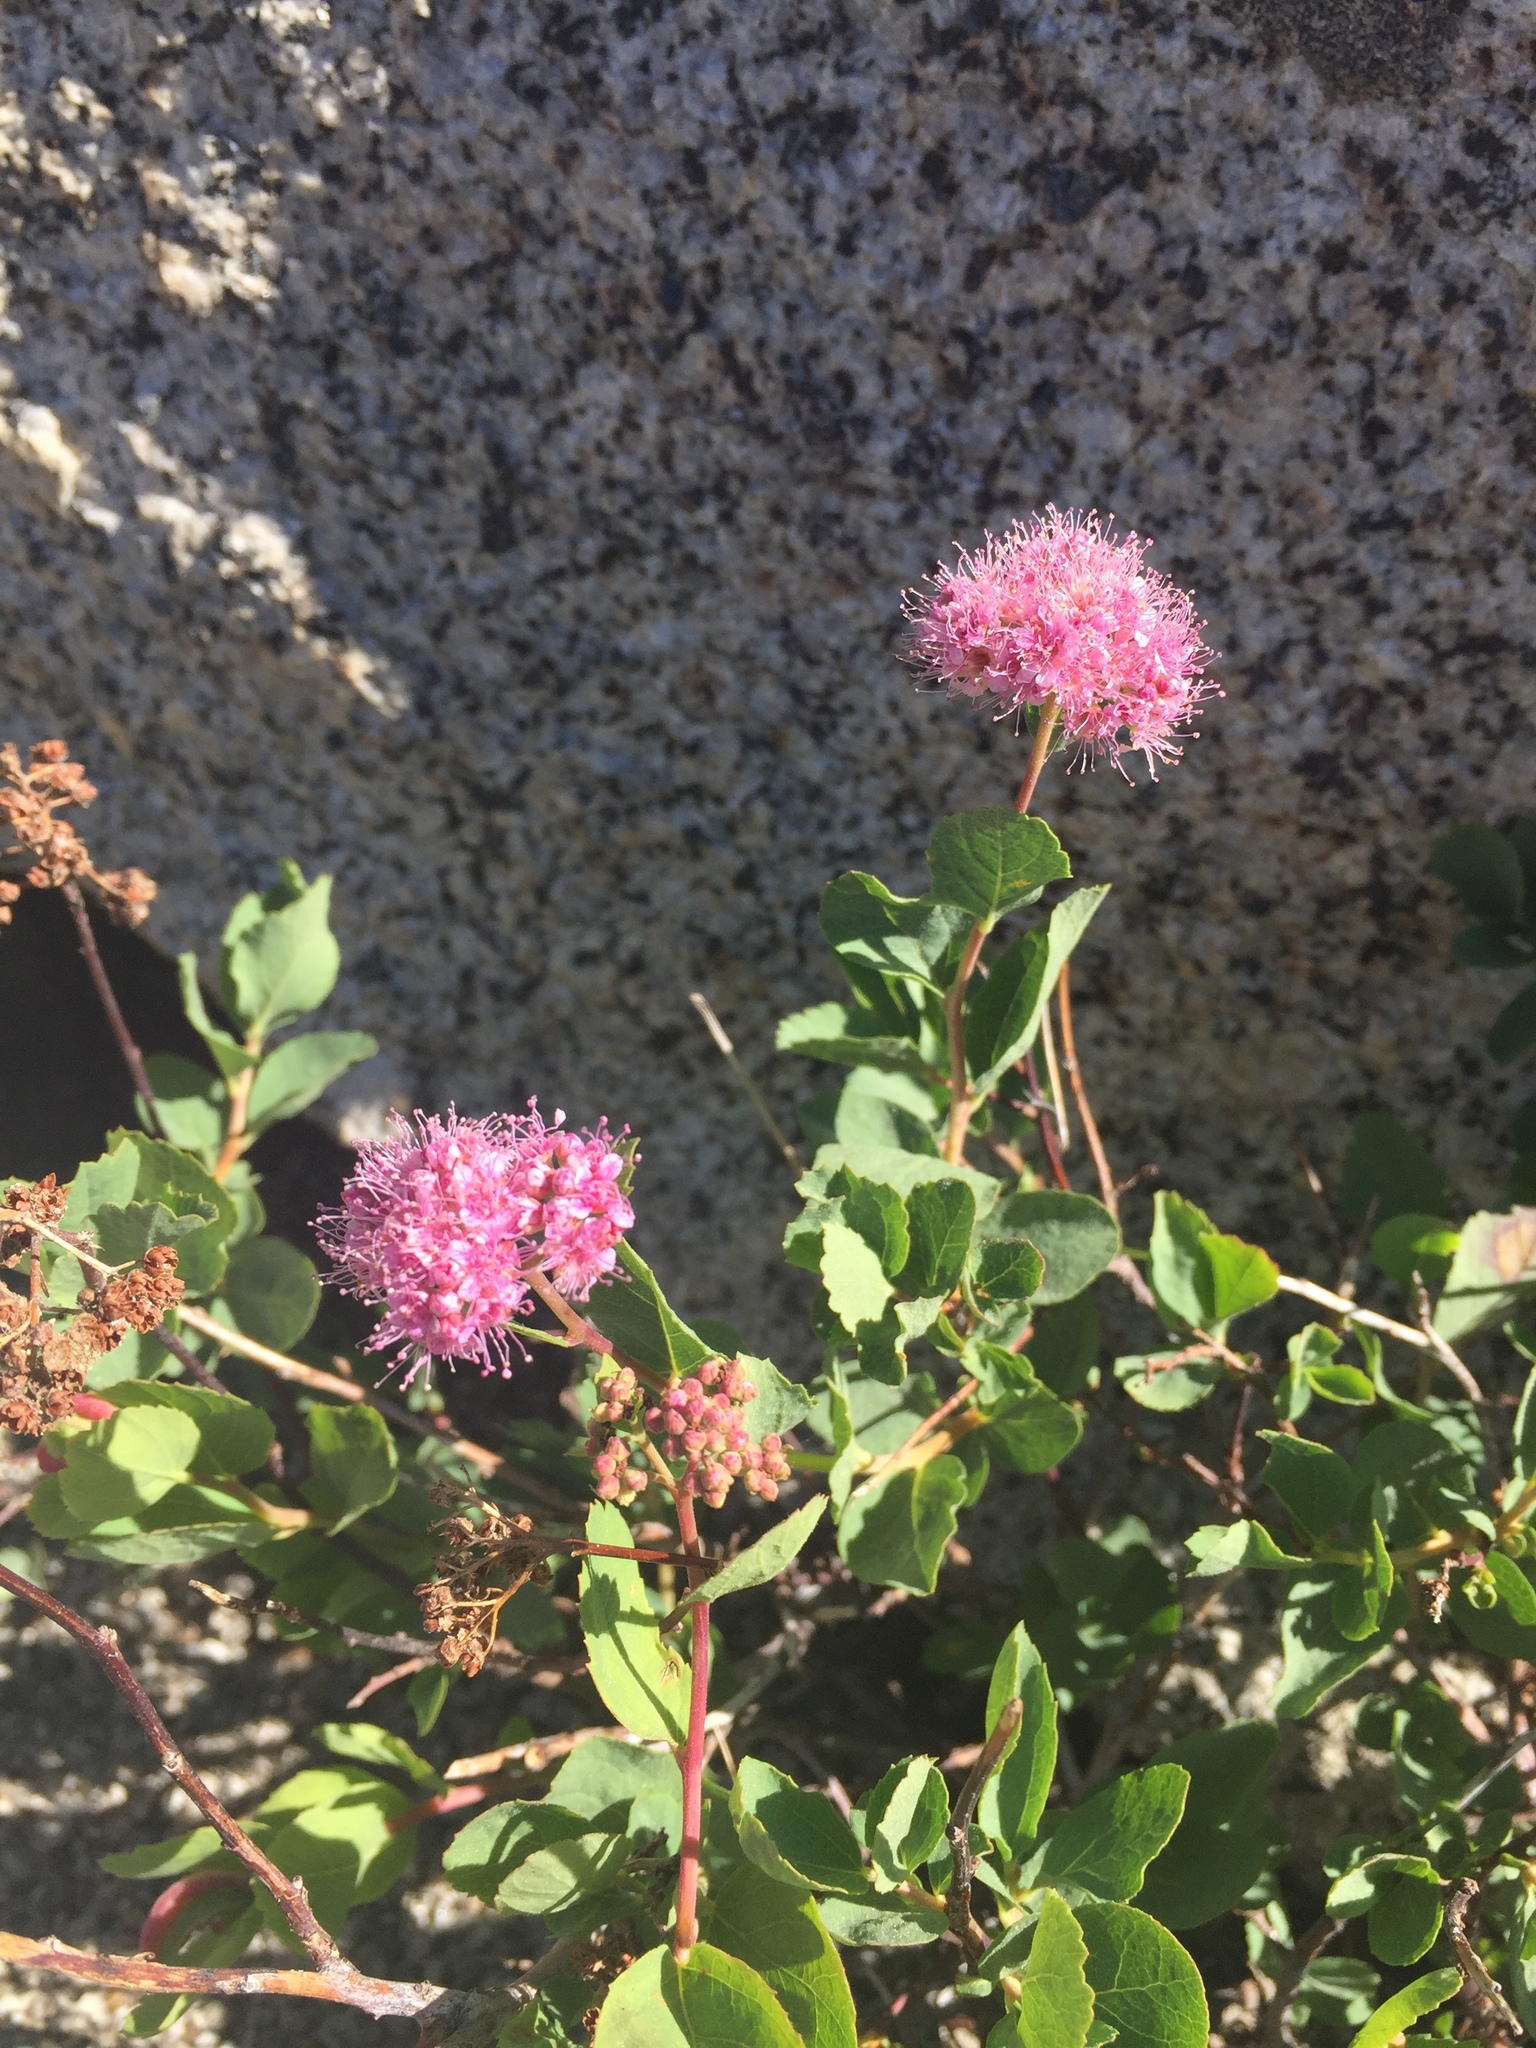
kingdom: Plantae
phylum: Tracheophyta
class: Magnoliopsida
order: Rosales
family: Rosaceae
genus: Spiraea
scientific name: Spiraea splendens
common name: Subalpine meadowsweet
